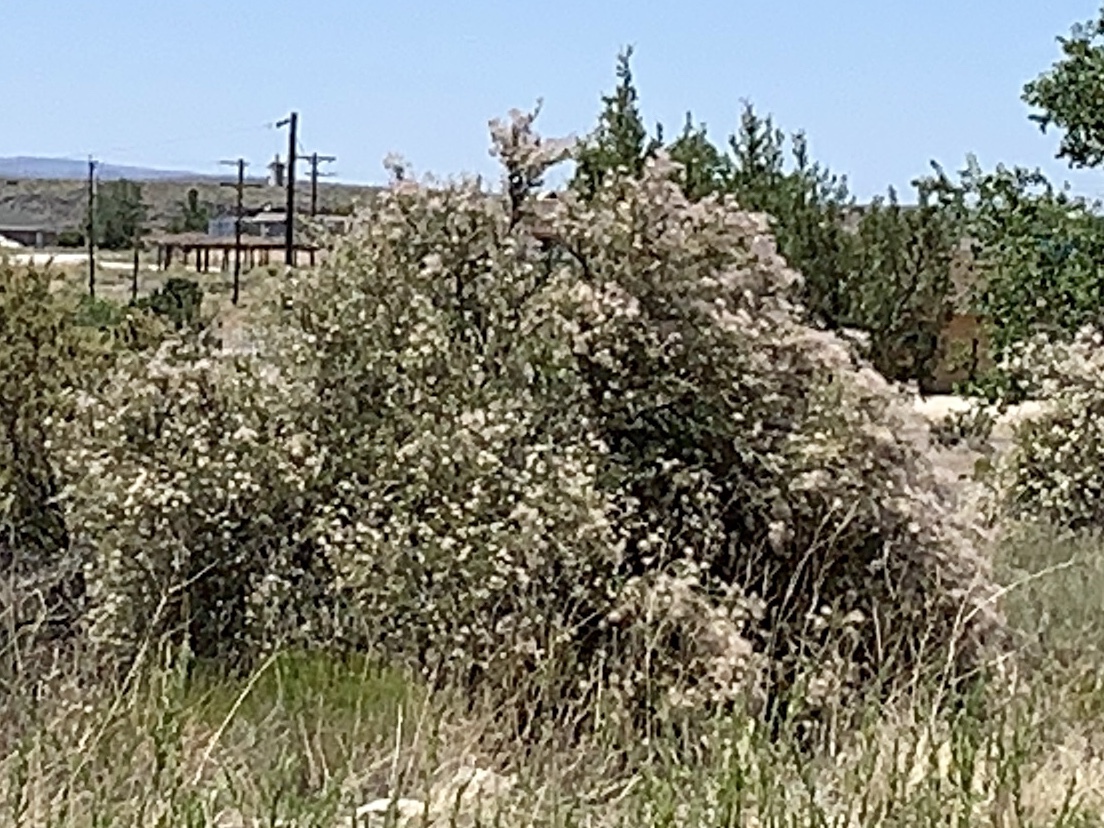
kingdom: Plantae
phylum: Tracheophyta
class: Magnoliopsida
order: Rosales
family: Rosaceae
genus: Fallugia
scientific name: Fallugia paradoxa
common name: Apache-plume
